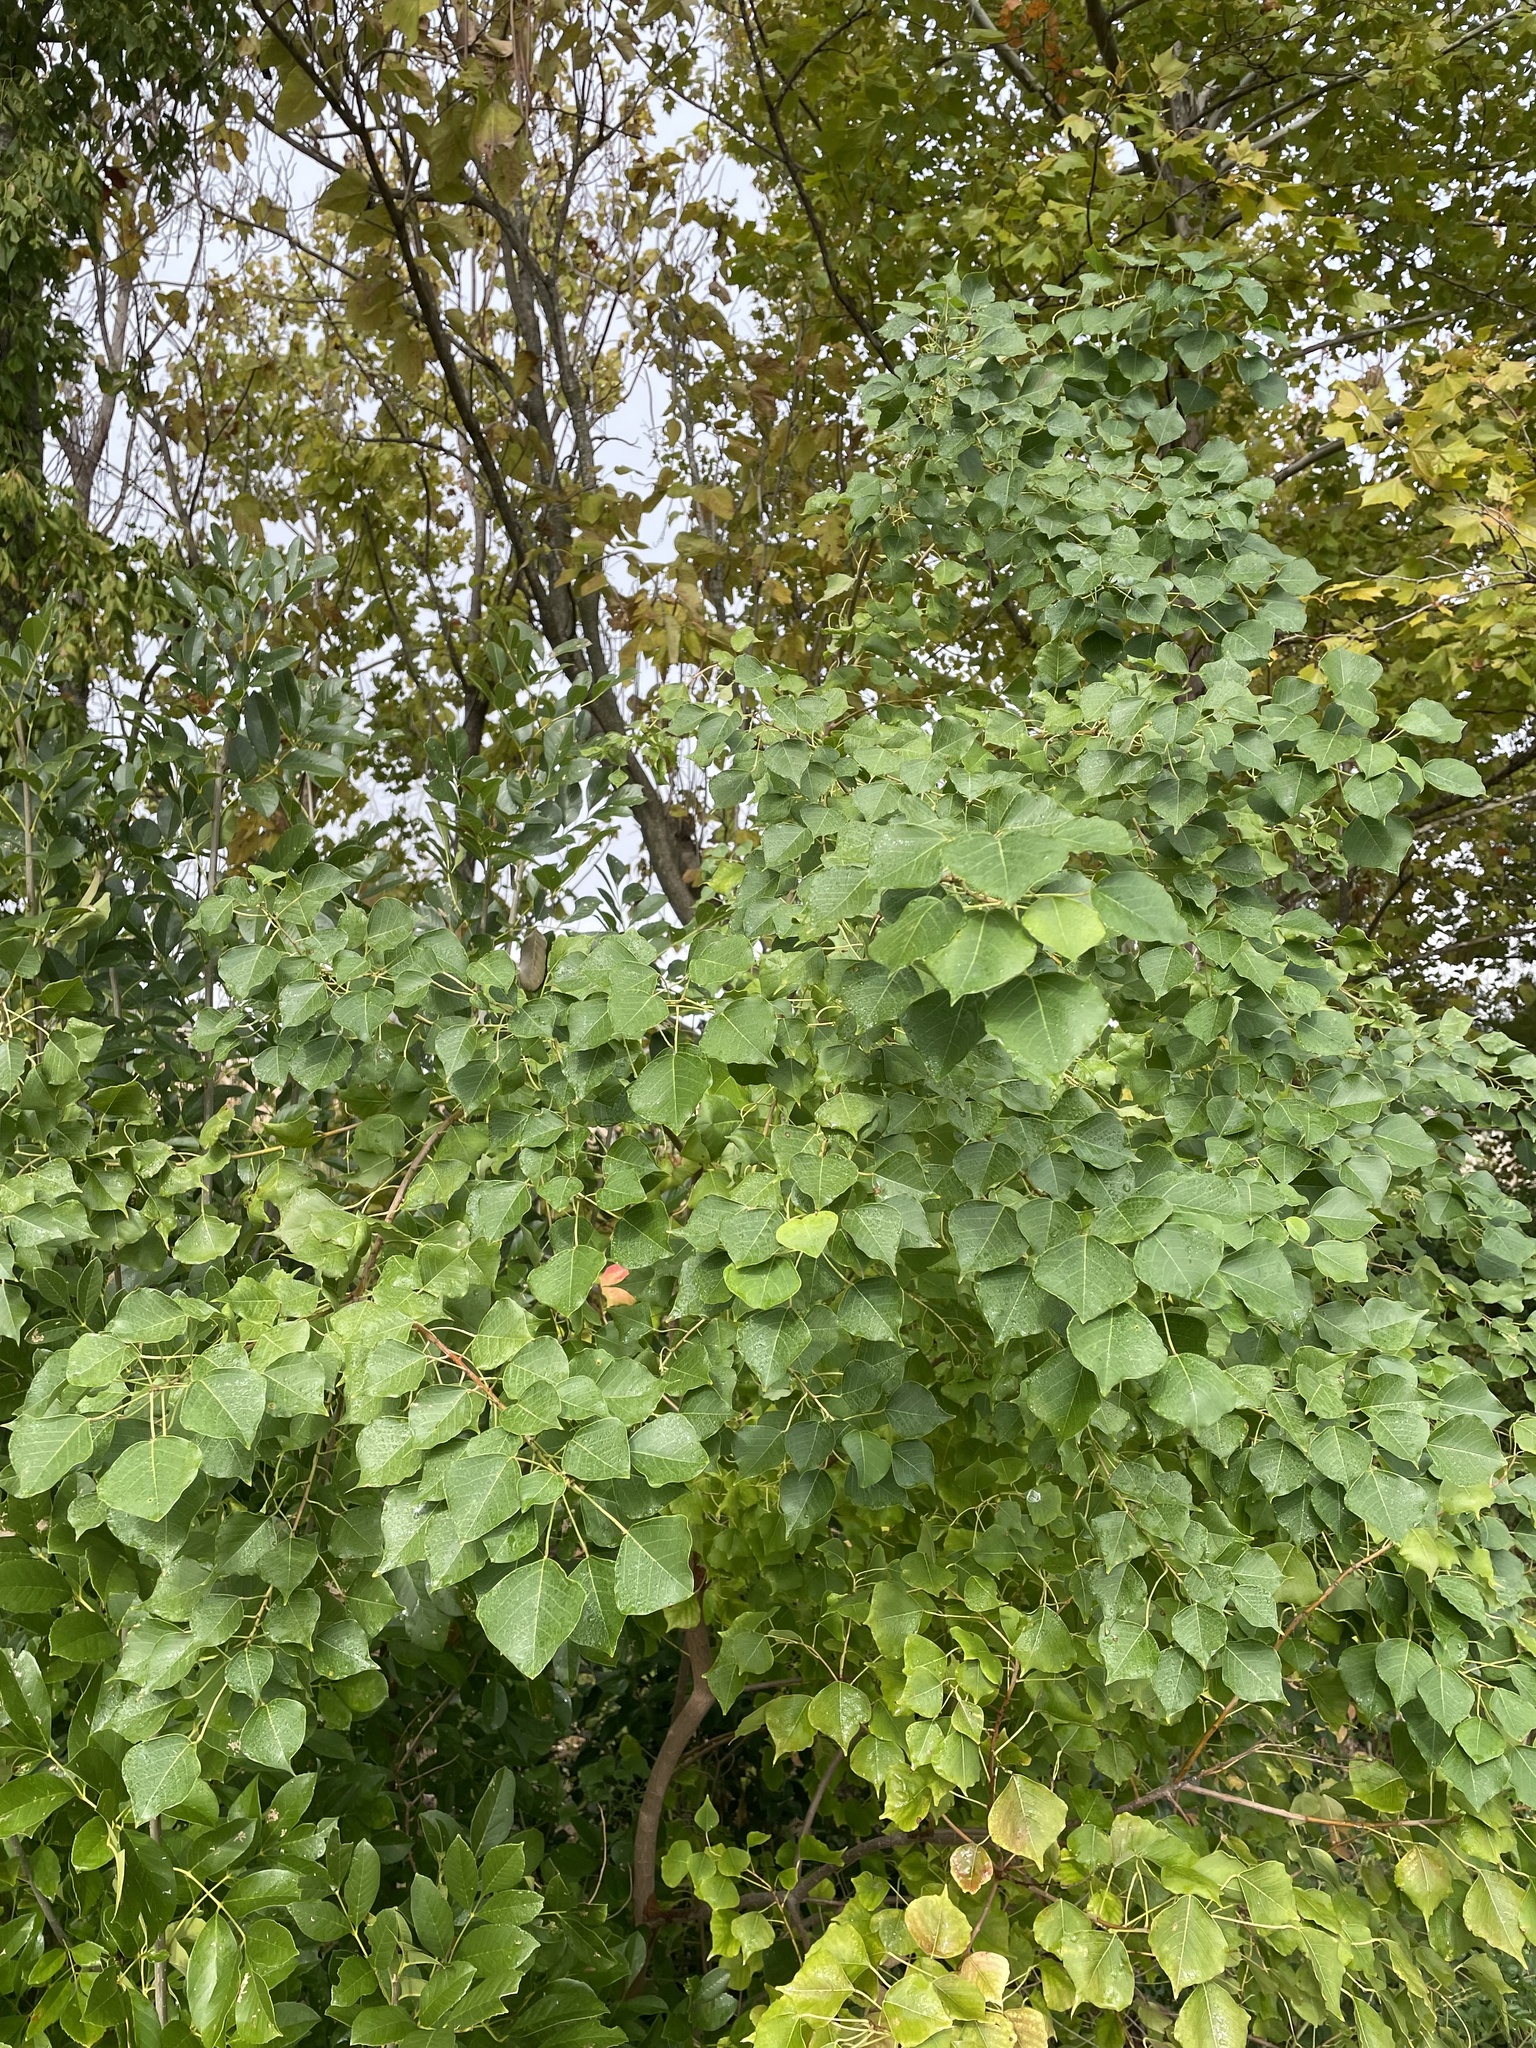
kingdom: Plantae
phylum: Tracheophyta
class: Magnoliopsida
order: Malpighiales
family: Euphorbiaceae
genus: Triadica
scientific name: Triadica sebifera
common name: Chinese tallow
